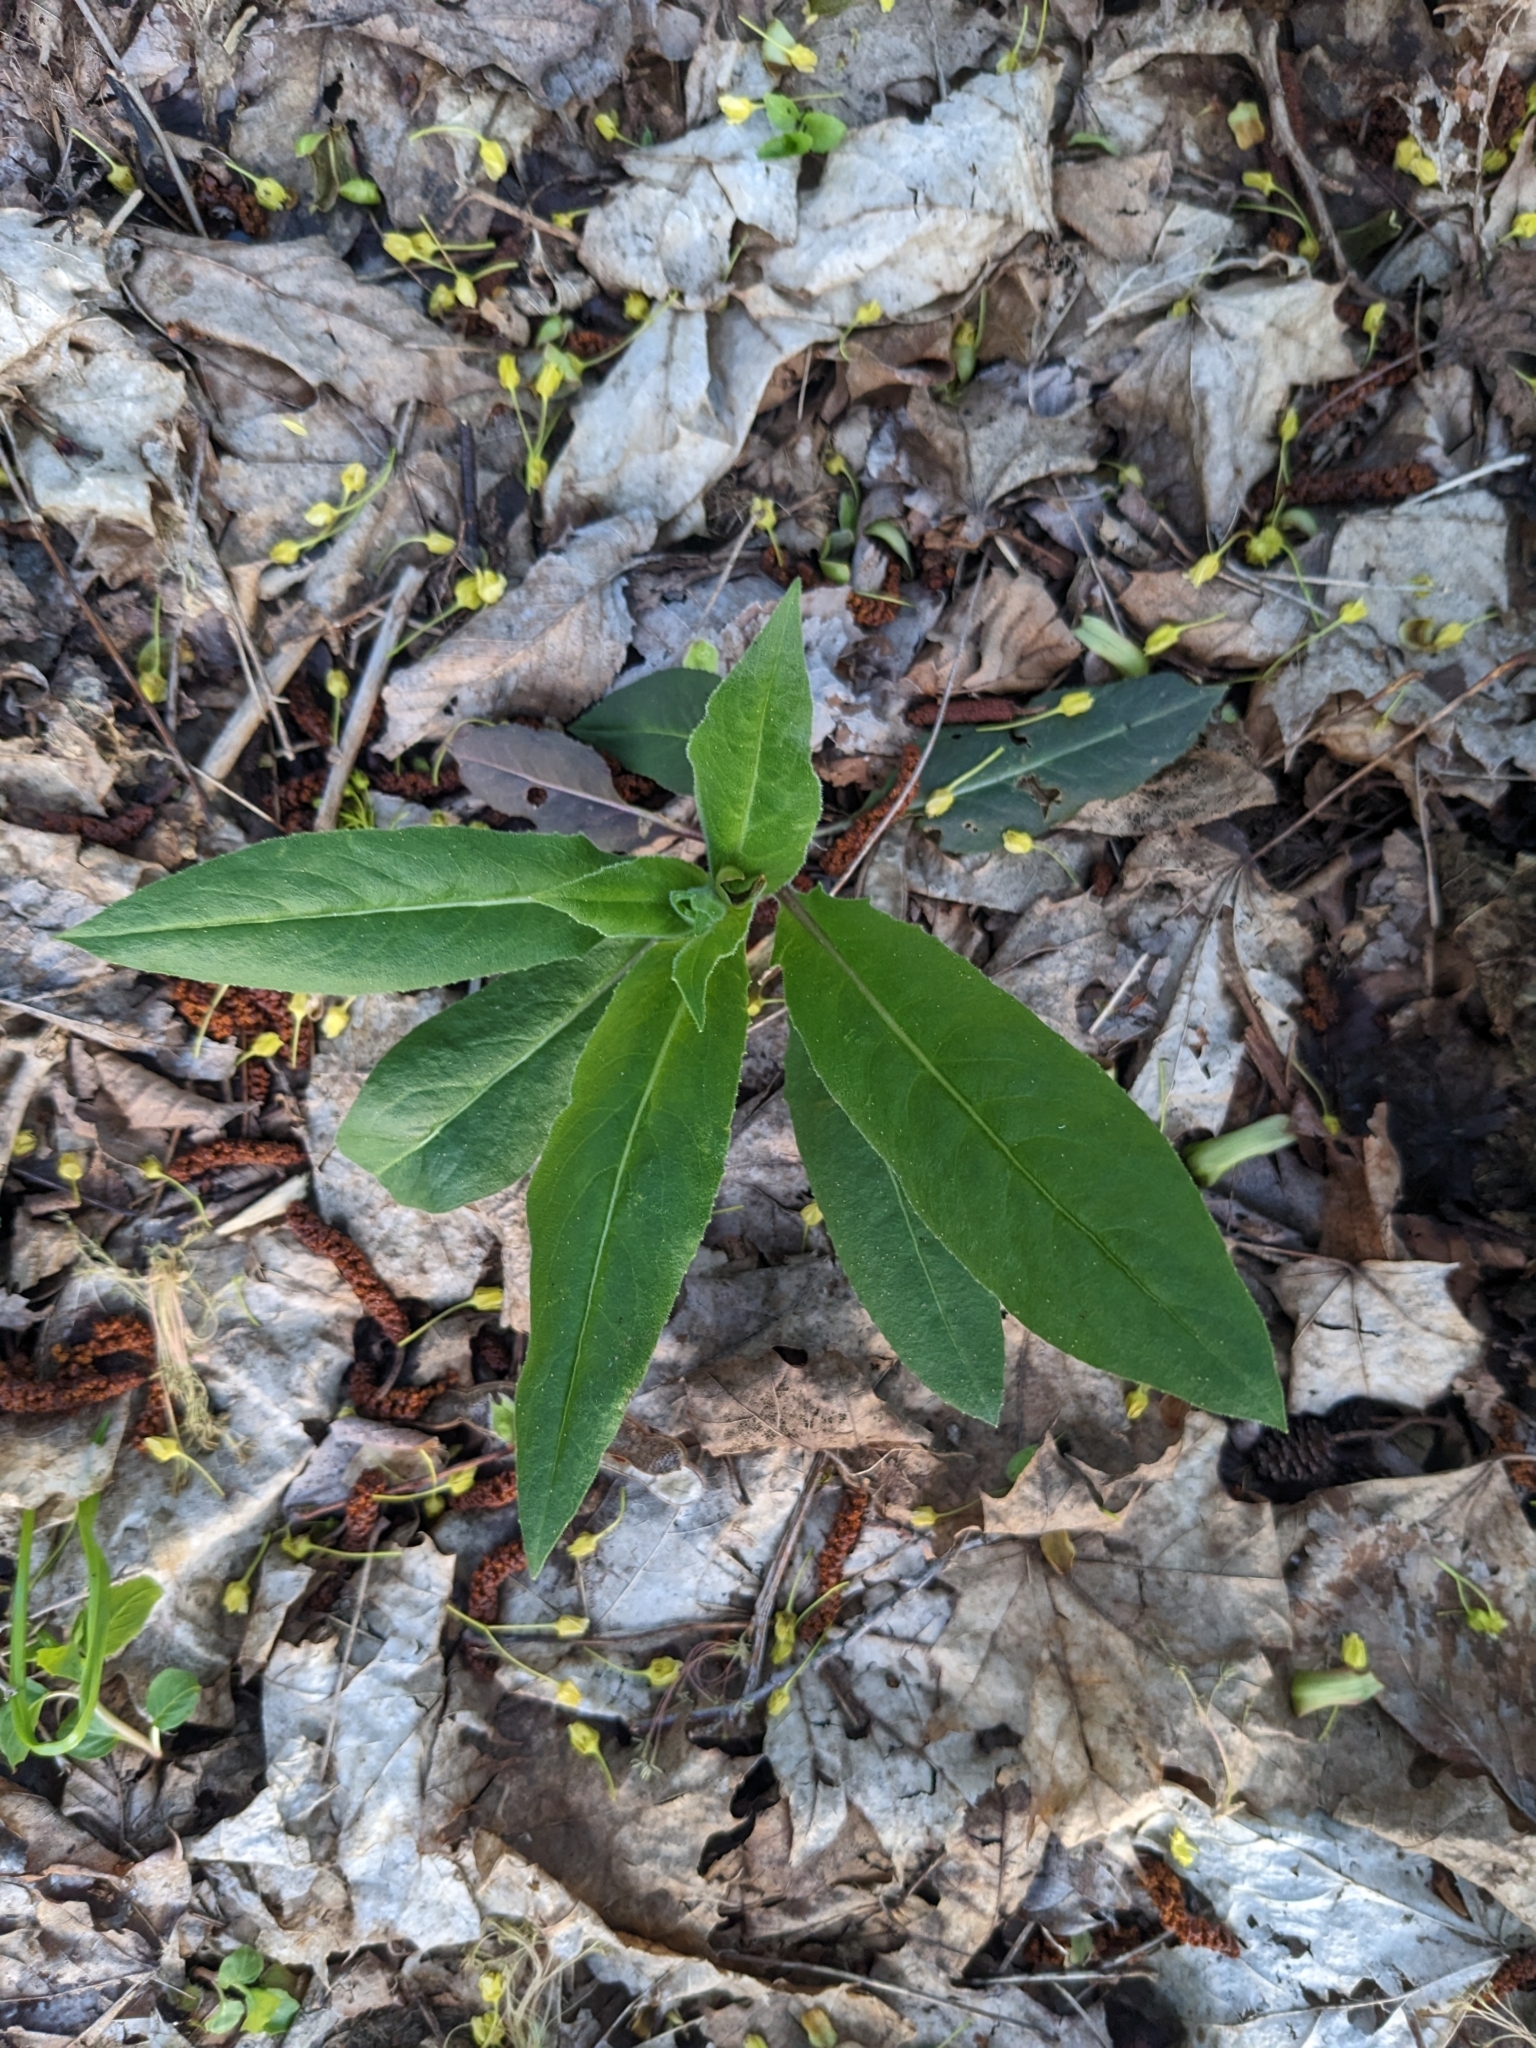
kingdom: Plantae
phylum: Tracheophyta
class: Magnoliopsida
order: Brassicales
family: Brassicaceae
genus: Hesperis
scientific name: Hesperis matronalis
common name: Dame's-violet
